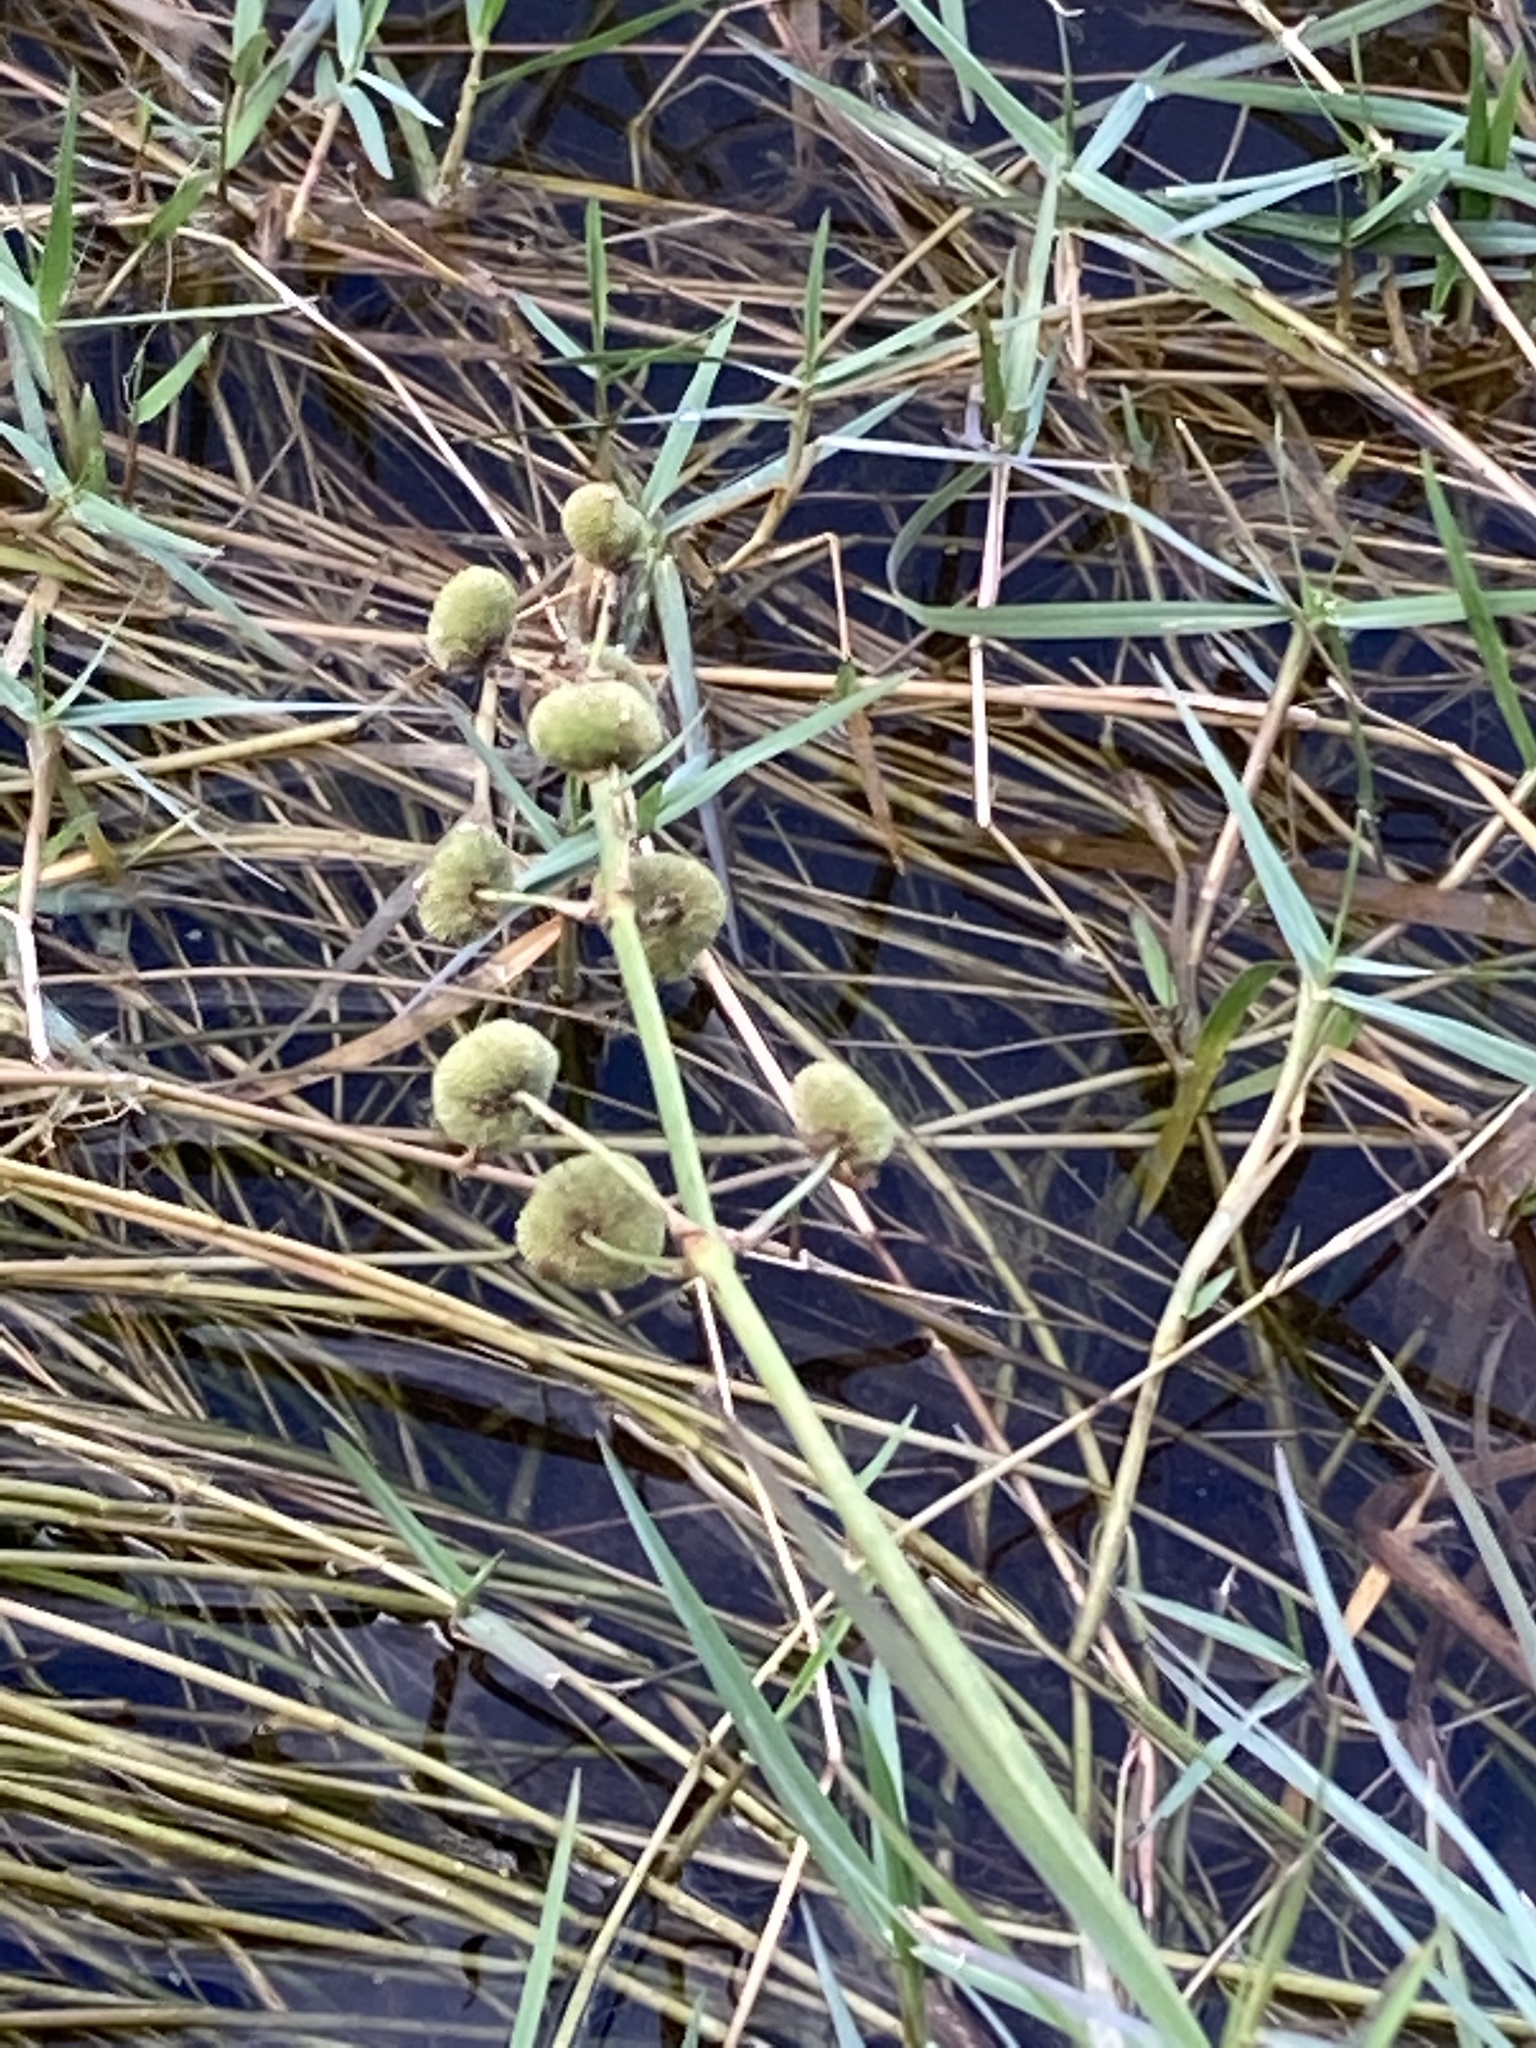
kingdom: Plantae
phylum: Tracheophyta
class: Liliopsida
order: Alismatales
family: Alismataceae
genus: Sagittaria
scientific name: Sagittaria lancifolia
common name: Lance-leaf arrowhead
